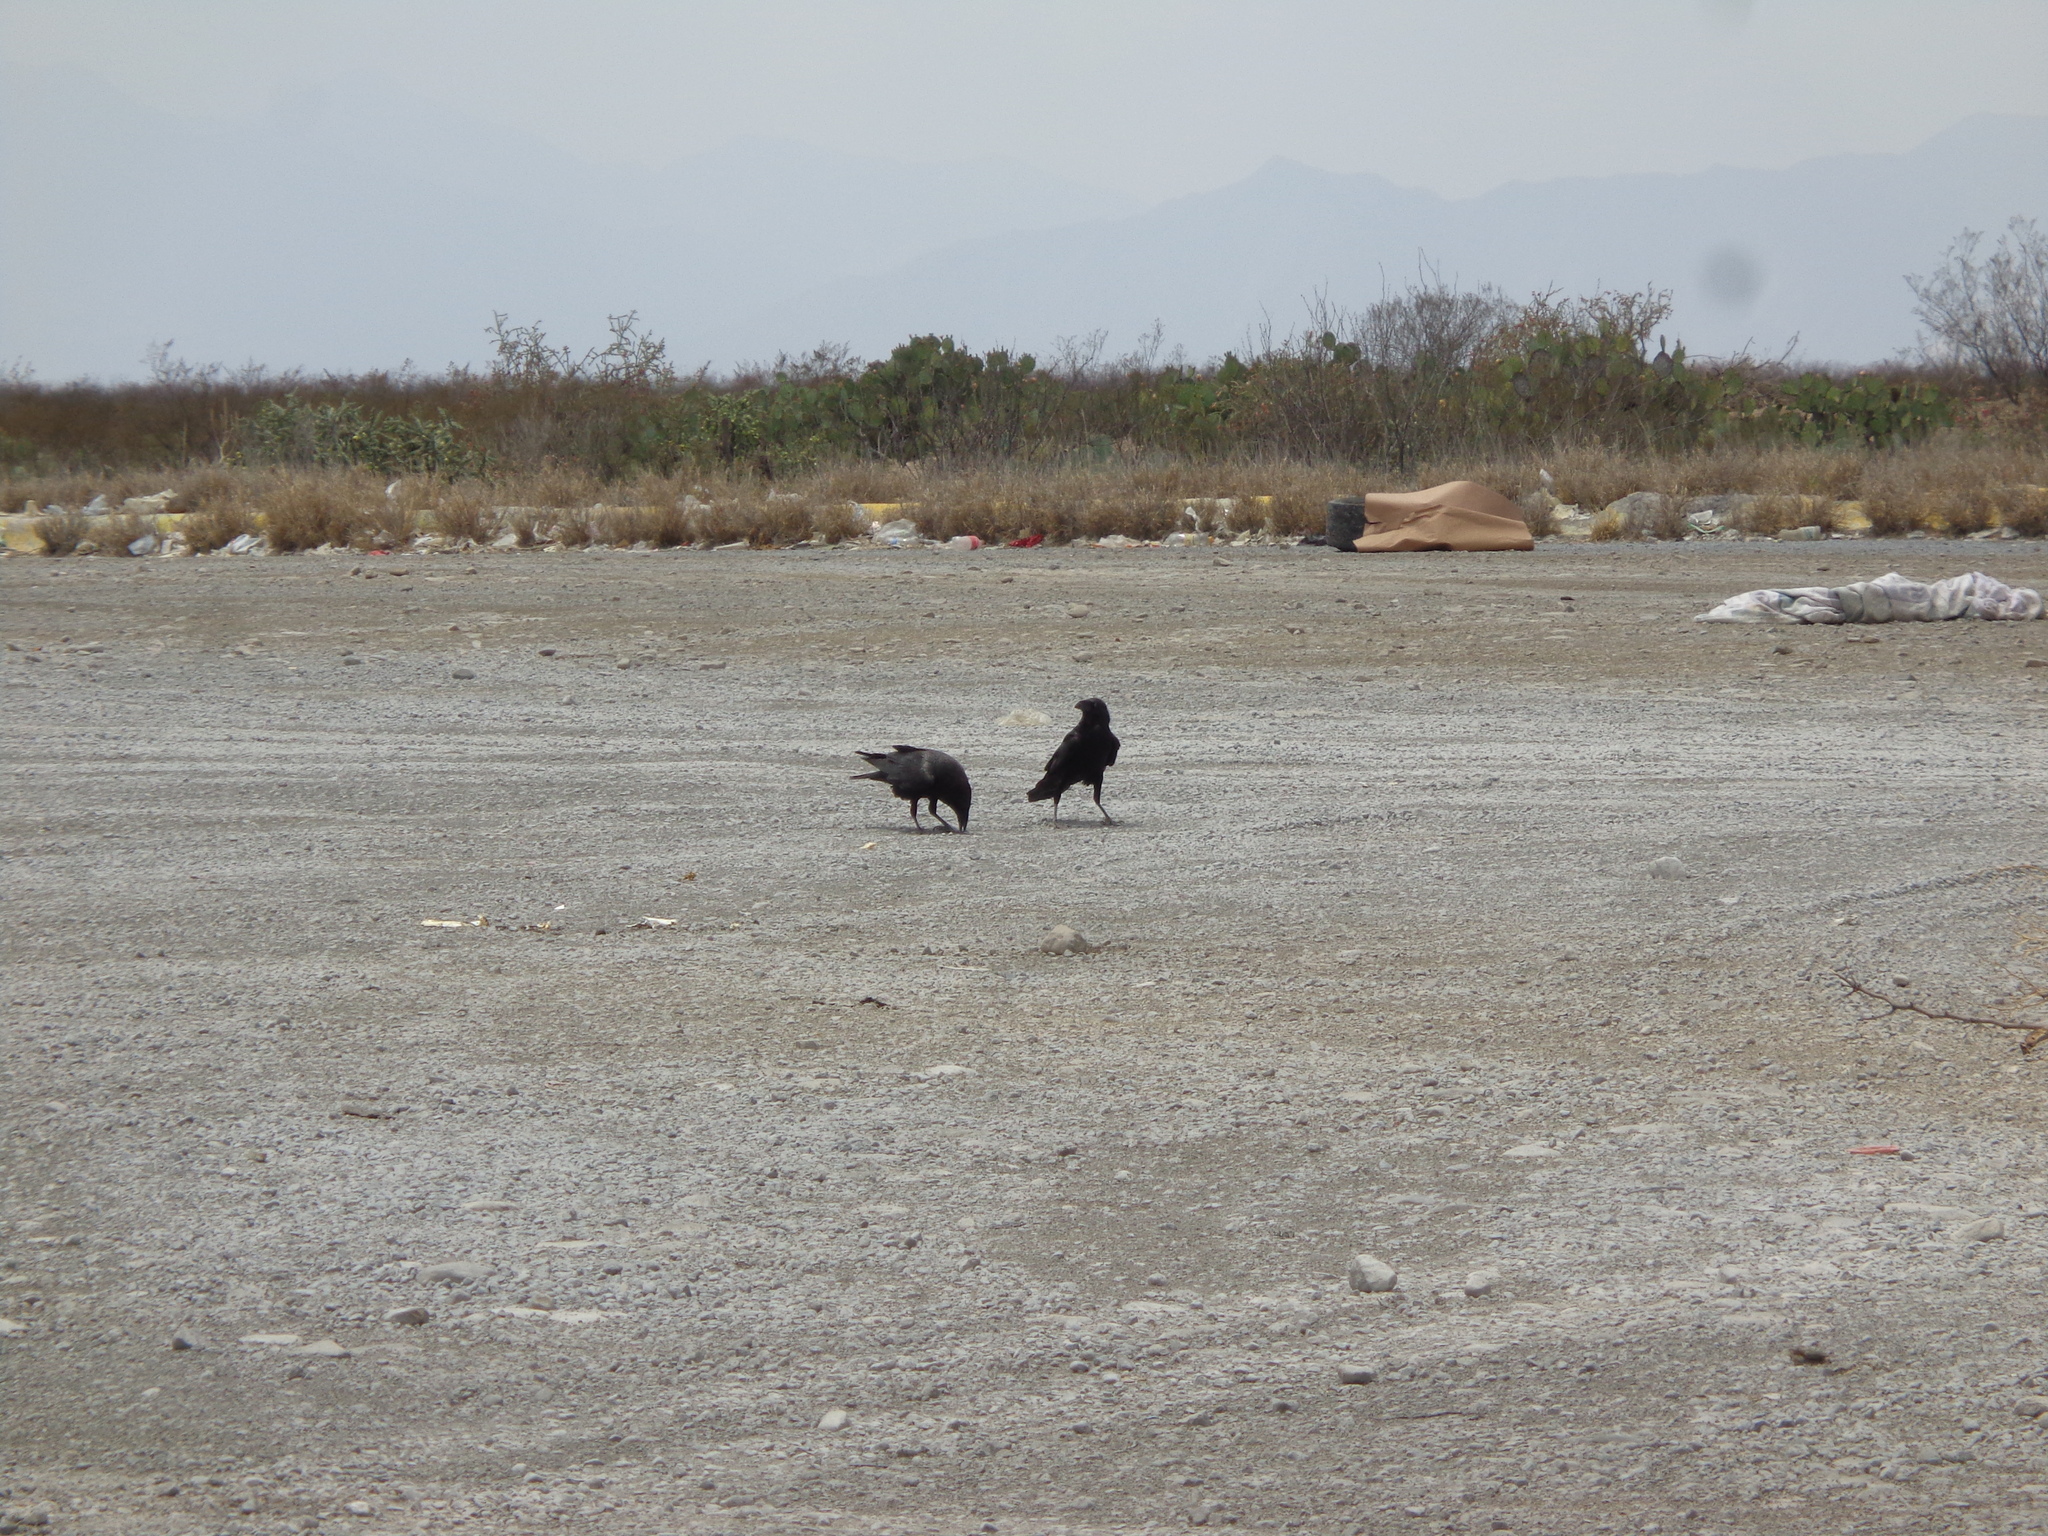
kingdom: Animalia
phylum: Chordata
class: Aves
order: Passeriformes
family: Corvidae
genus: Corvus
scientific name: Corvus corax
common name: Common raven
